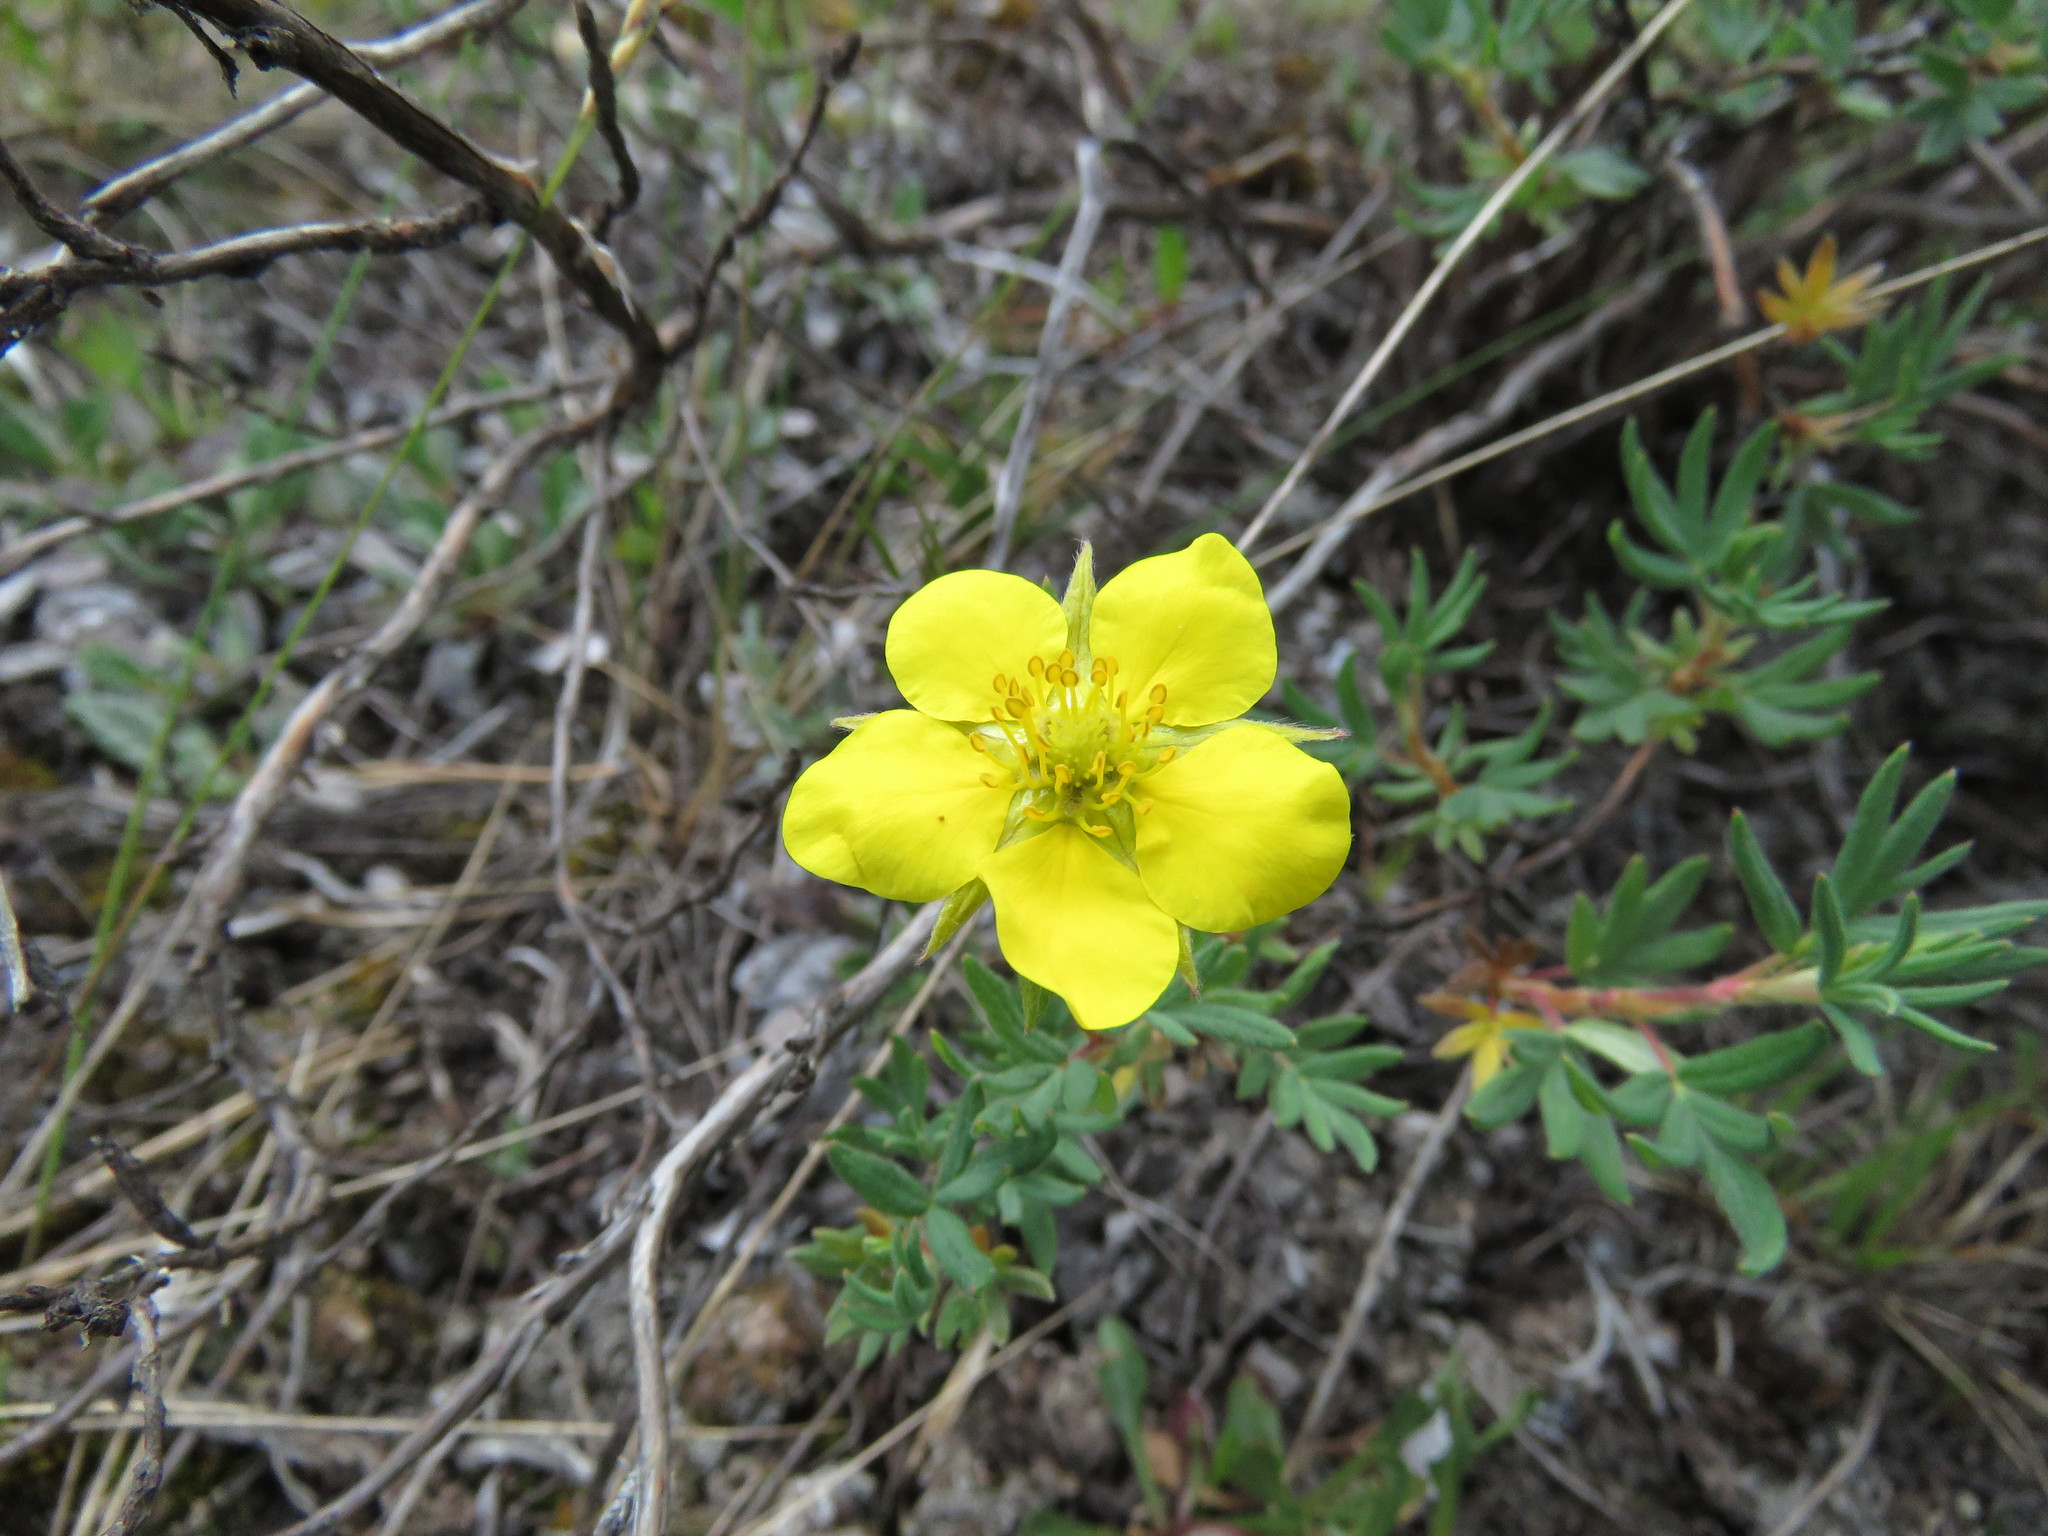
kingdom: Plantae
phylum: Tracheophyta
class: Magnoliopsida
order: Rosales
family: Rosaceae
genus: Dasiphora
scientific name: Dasiphora fruticosa
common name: Shrubby cinquefoil
